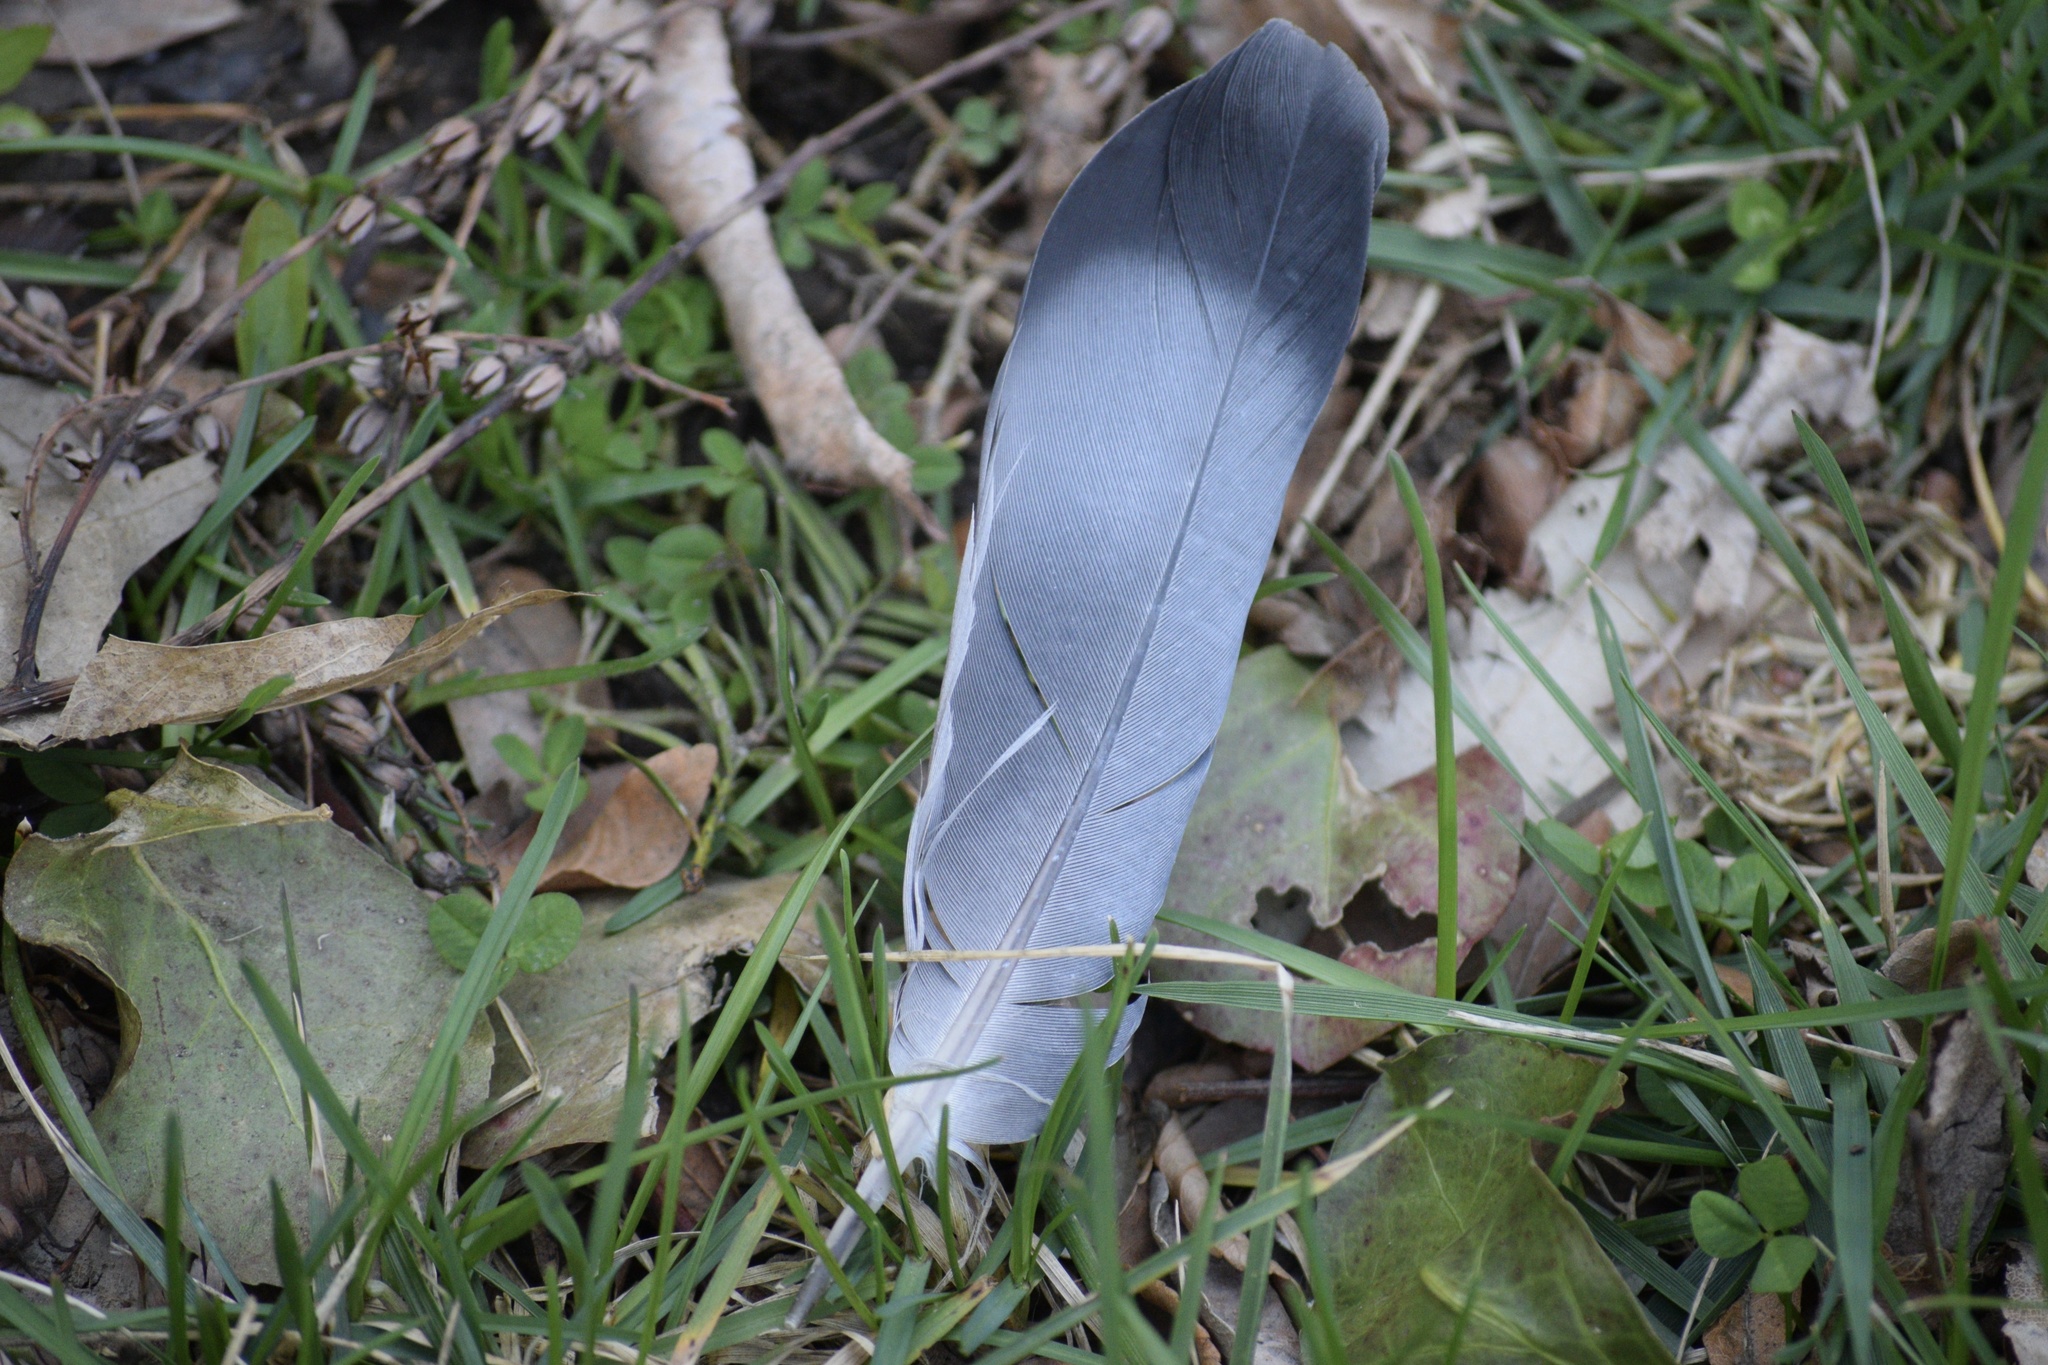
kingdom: Animalia
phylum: Chordata
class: Aves
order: Columbiformes
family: Columbidae
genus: Columba
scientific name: Columba livia
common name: Rock pigeon
